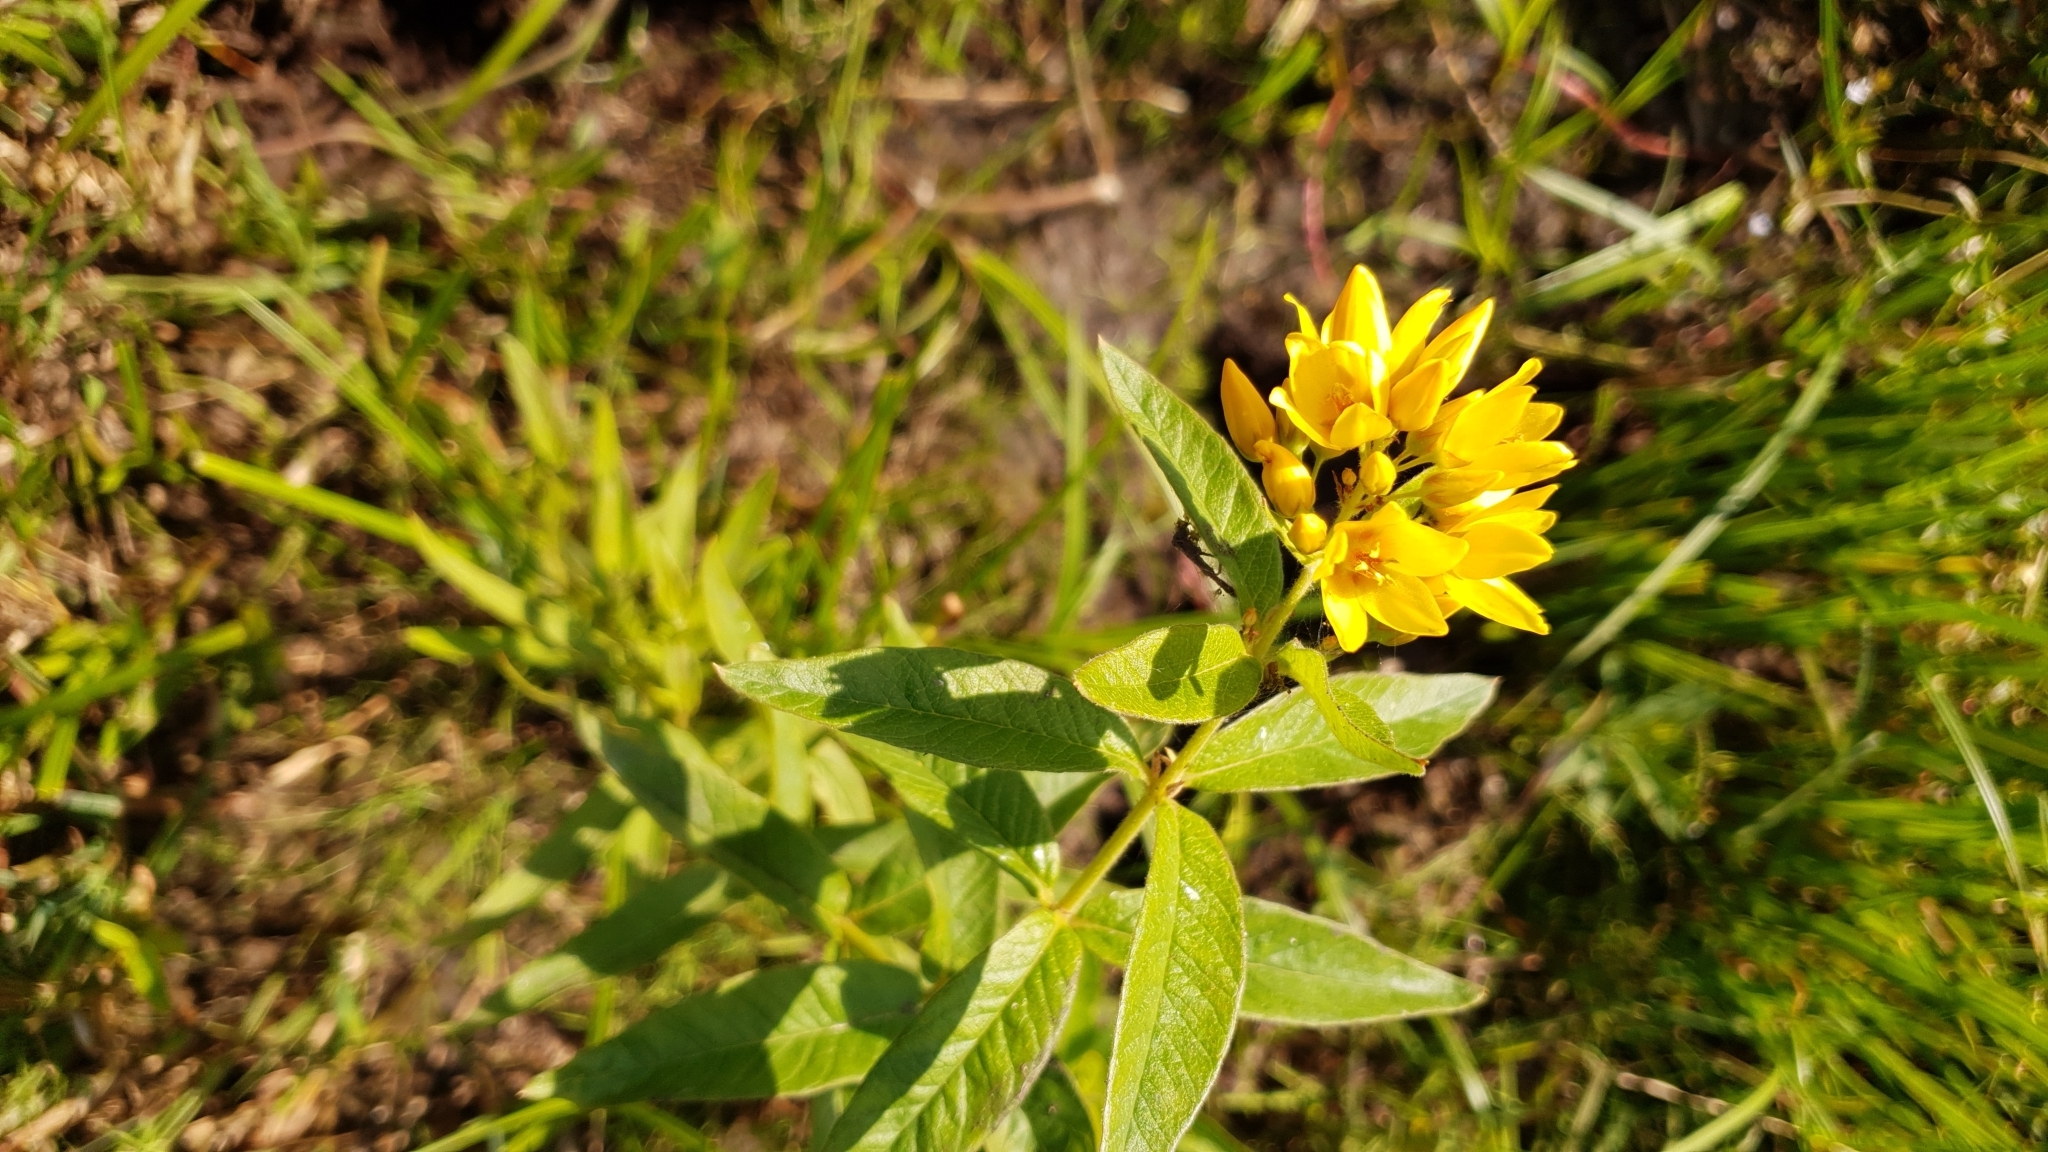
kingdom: Plantae
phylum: Tracheophyta
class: Magnoliopsida
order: Ericales
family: Primulaceae
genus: Lysimachia
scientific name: Lysimachia vulgaris
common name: Yellow loosestrife
